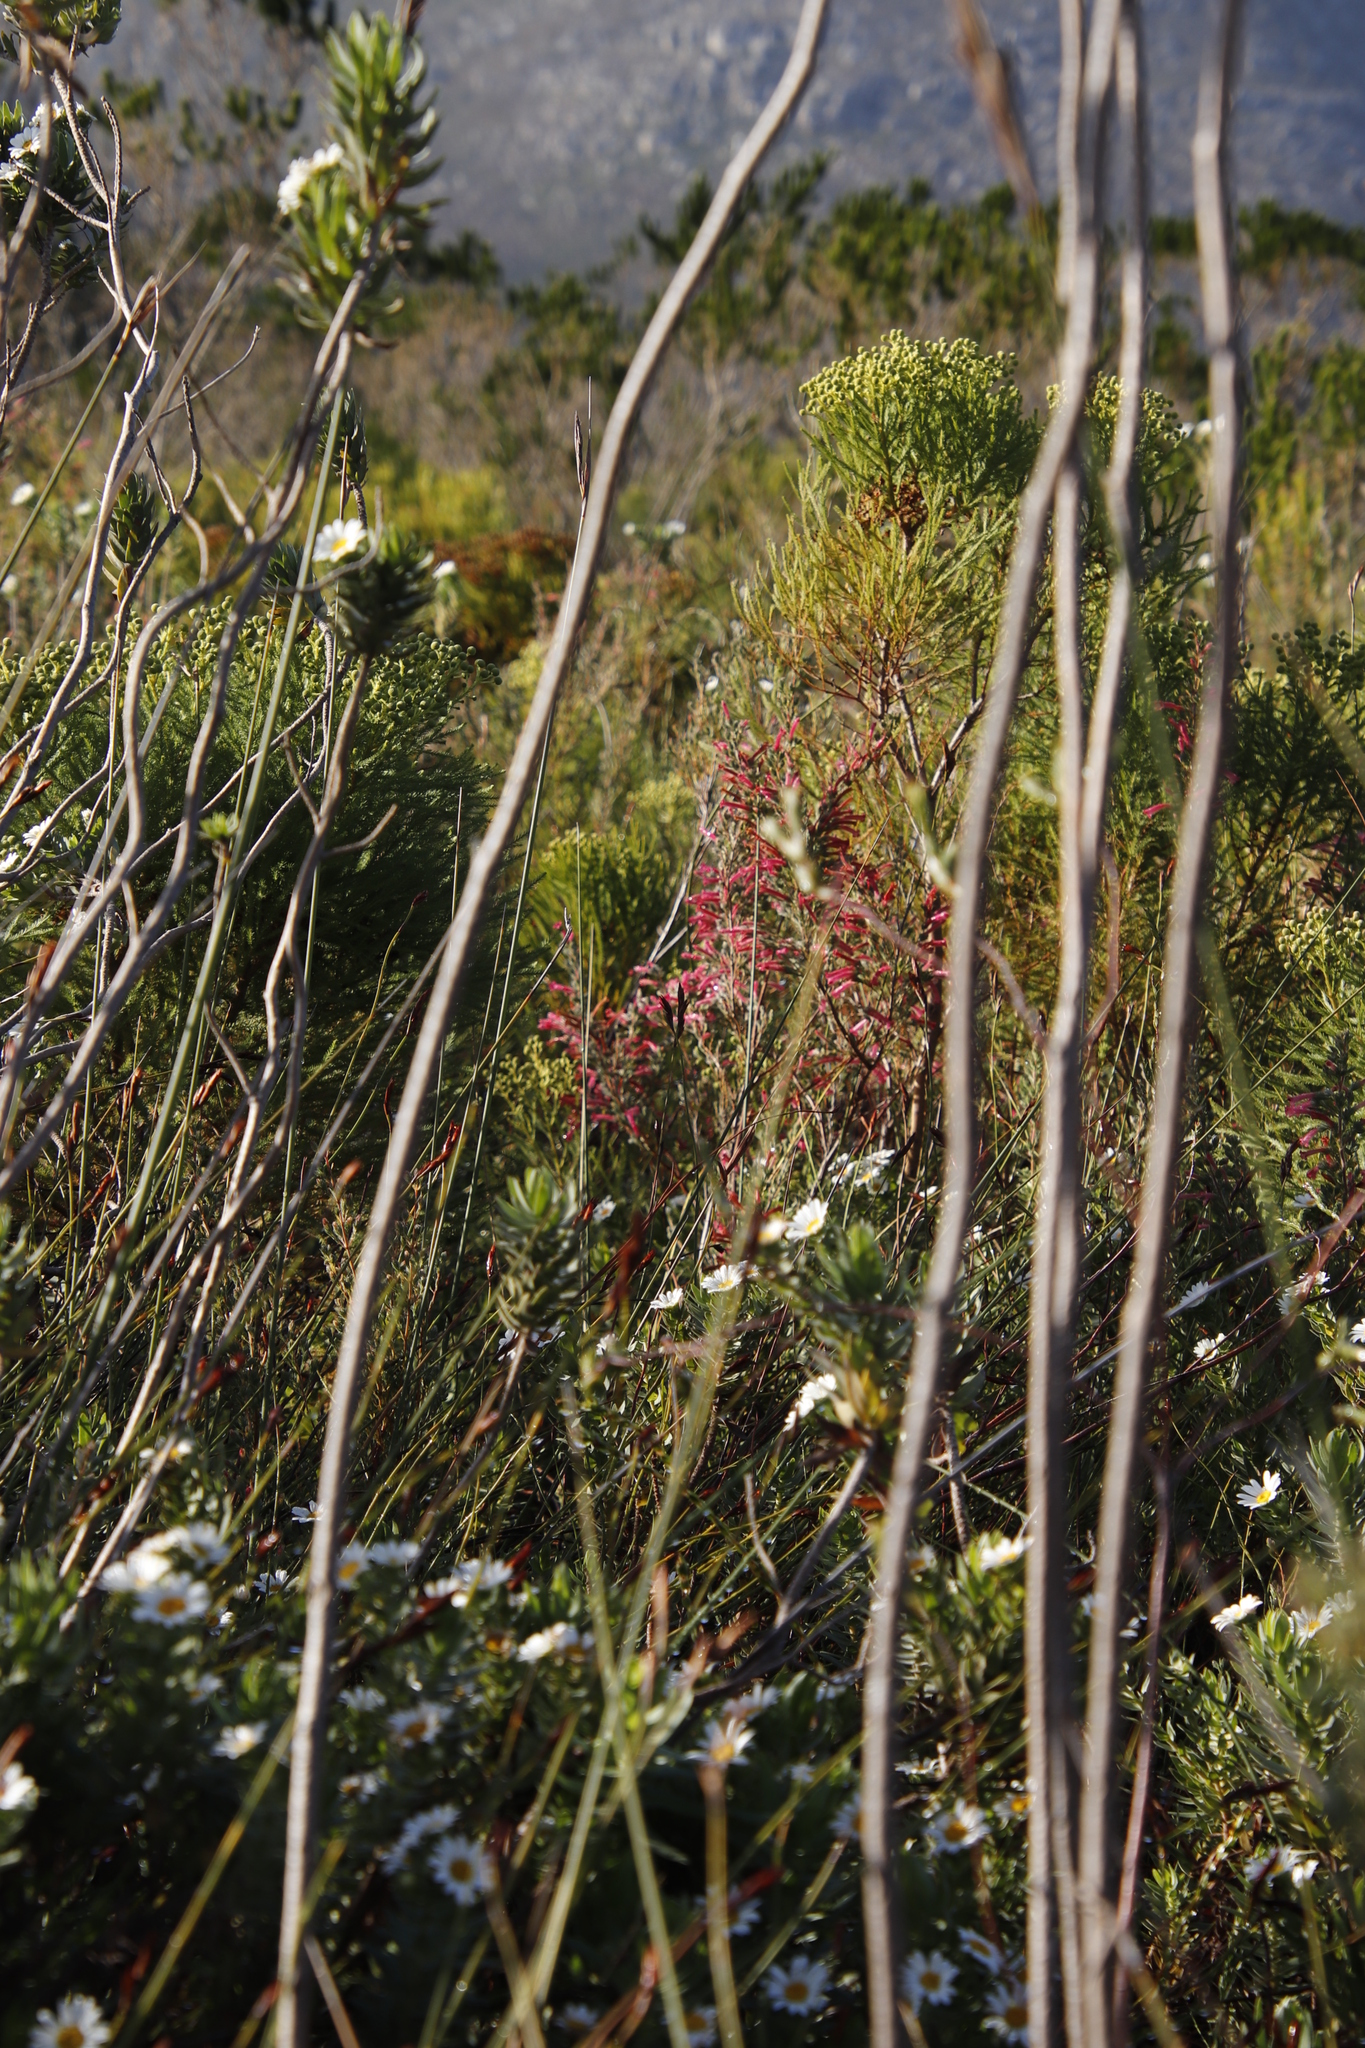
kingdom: Plantae
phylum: Tracheophyta
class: Magnoliopsida
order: Ericales
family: Ericaceae
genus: Erica
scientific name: Erica curviflora
